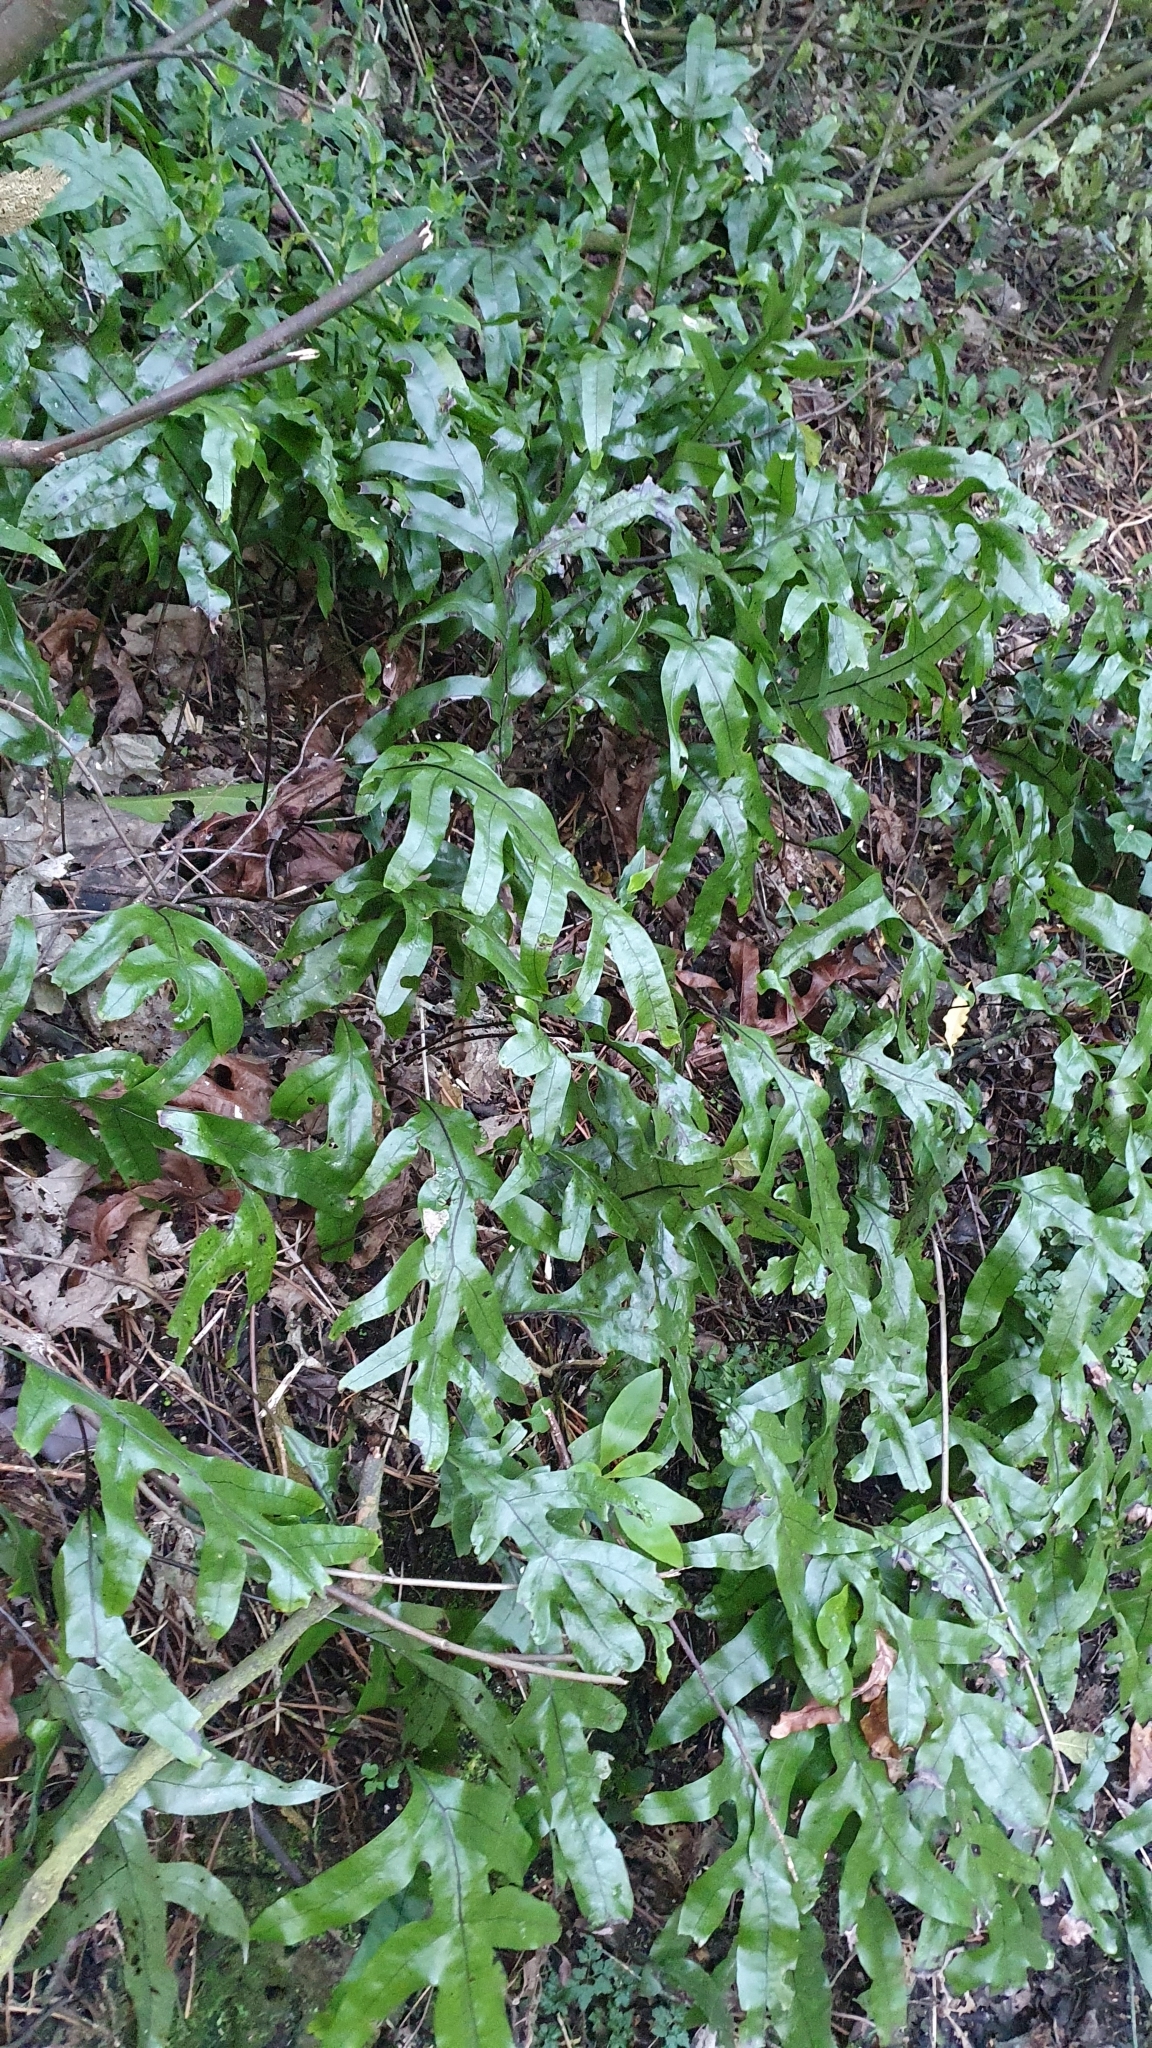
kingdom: Plantae
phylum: Tracheophyta
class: Polypodiopsida
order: Polypodiales
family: Polypodiaceae
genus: Lecanopteris
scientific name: Lecanopteris pustulata
